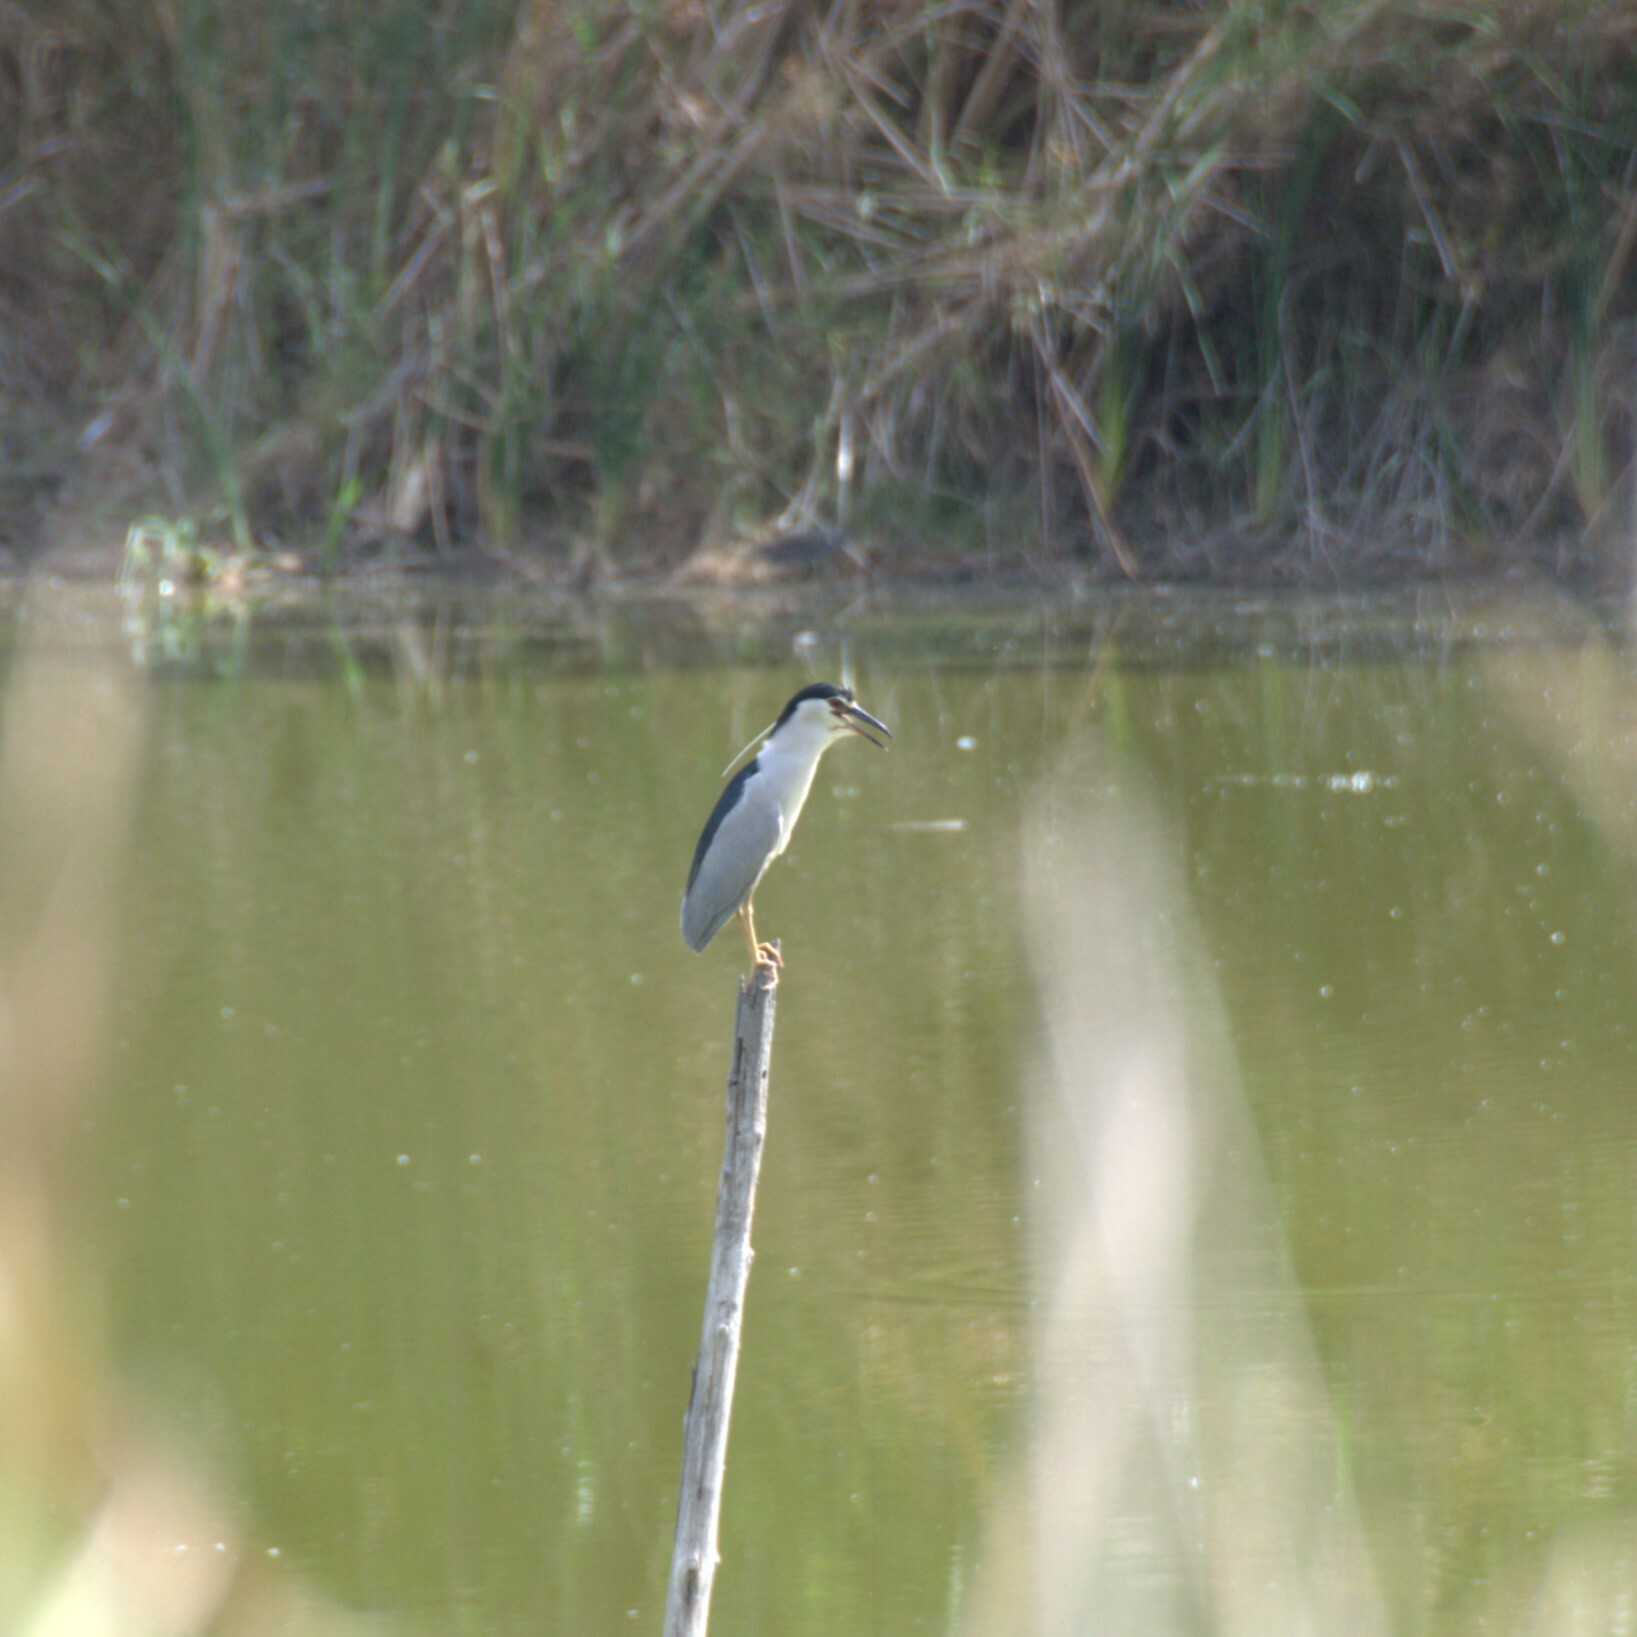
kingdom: Animalia
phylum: Chordata
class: Aves
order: Pelecaniformes
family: Ardeidae
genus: Nycticorax
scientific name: Nycticorax nycticorax
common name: Black-crowned night heron
